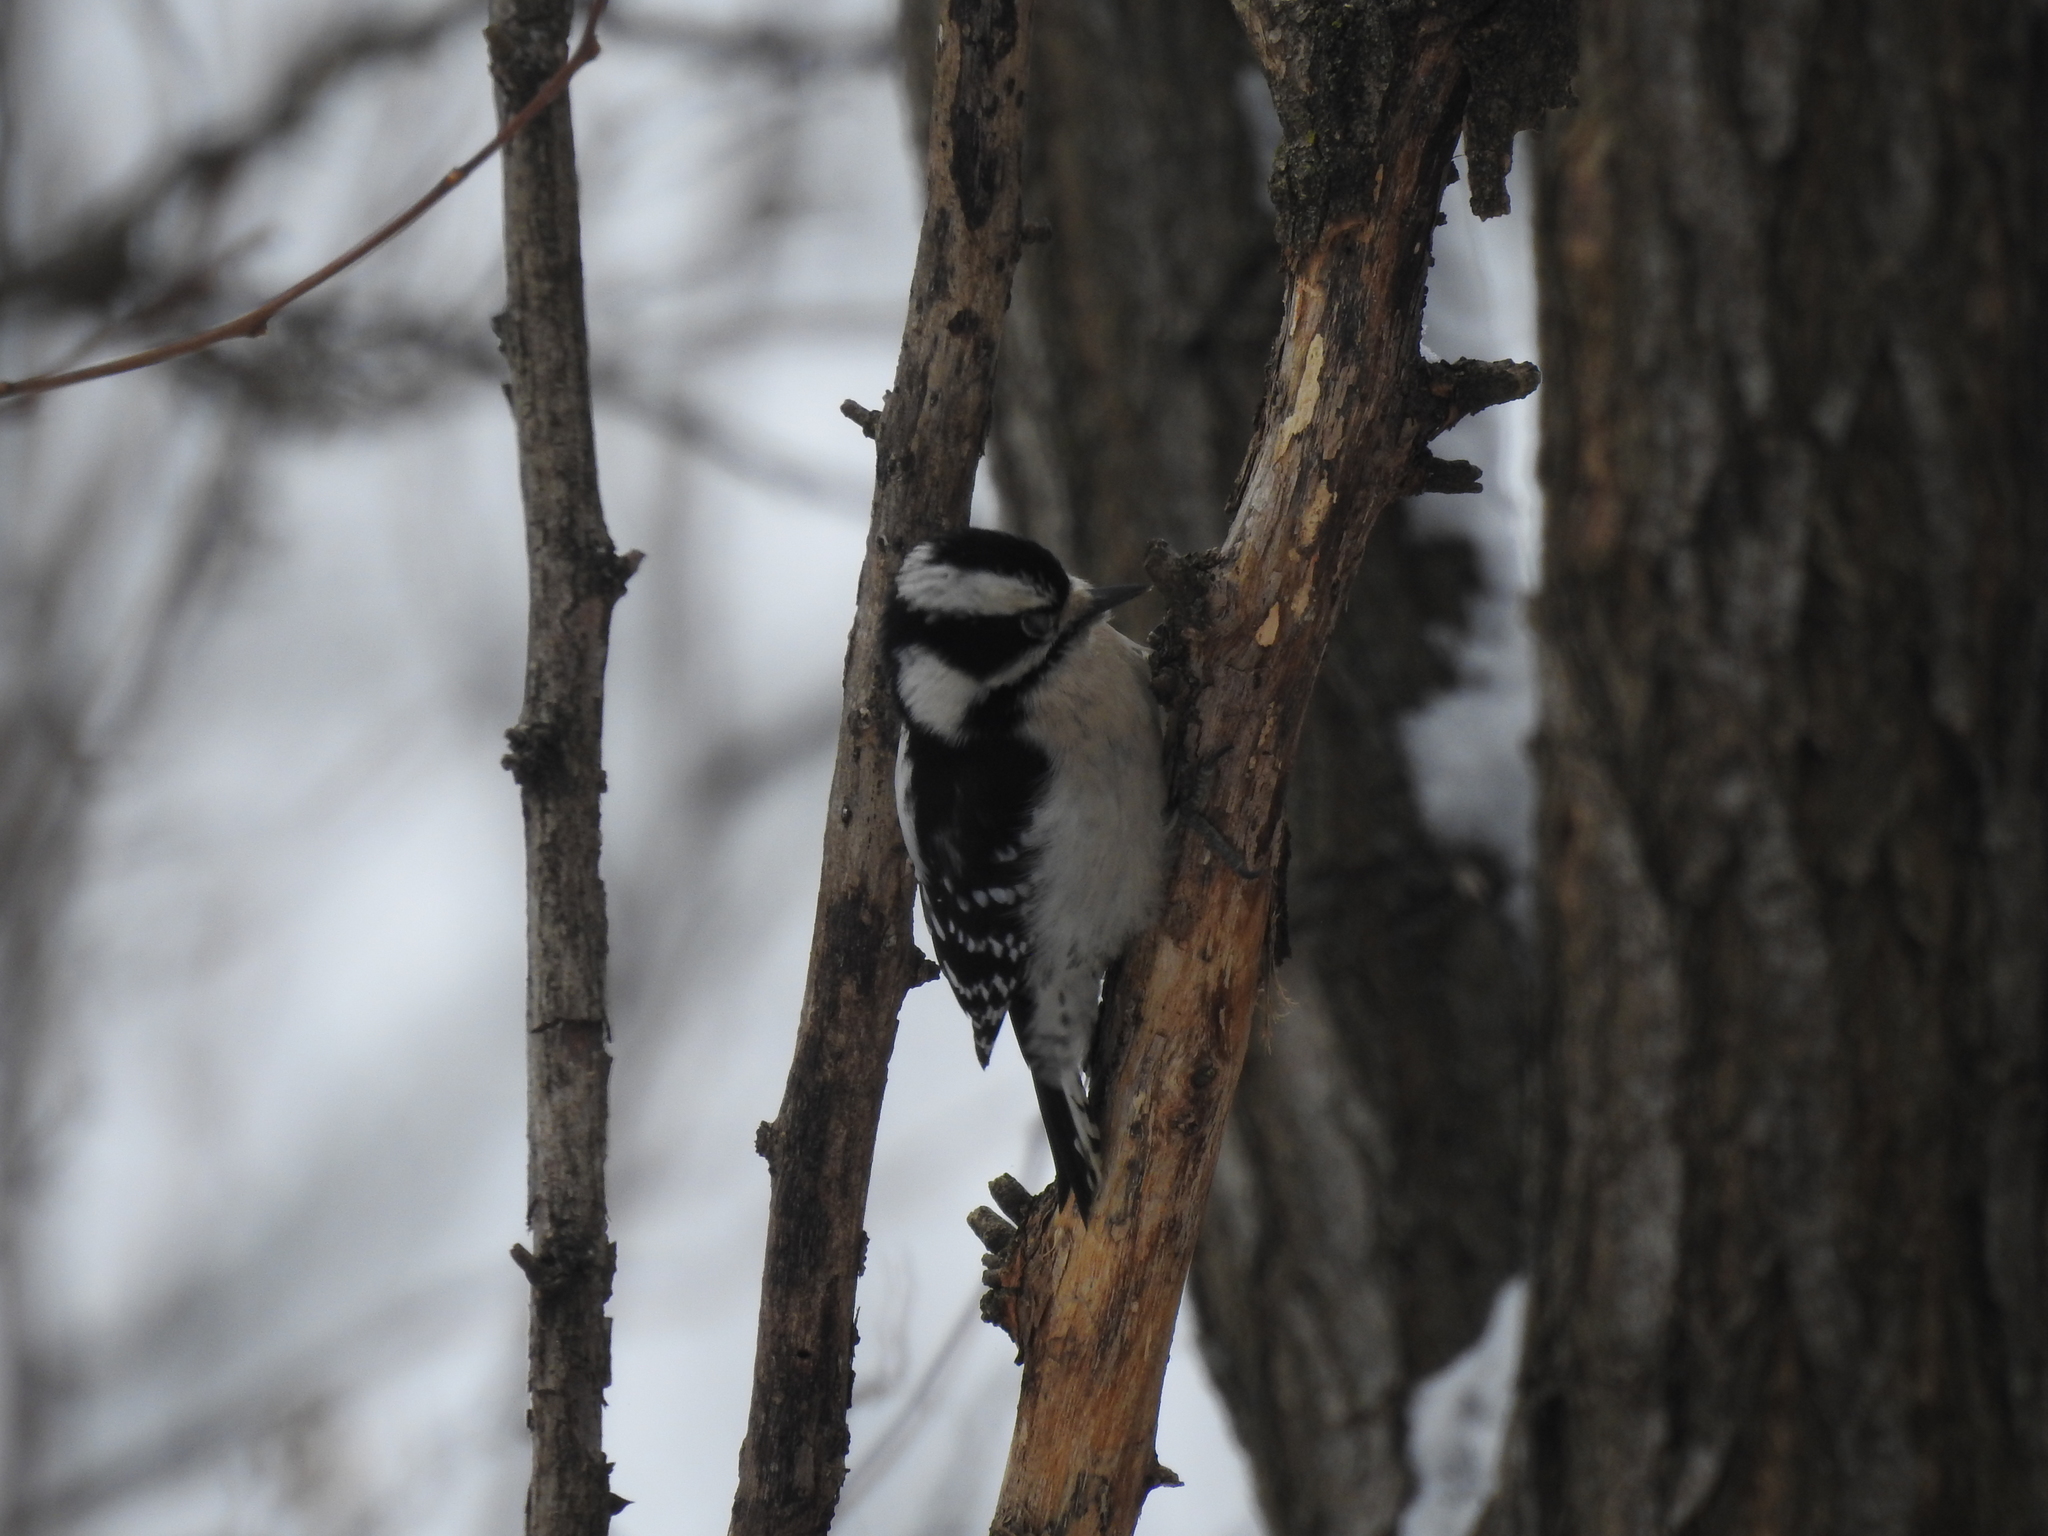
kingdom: Animalia
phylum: Chordata
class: Aves
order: Piciformes
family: Picidae
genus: Dryobates
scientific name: Dryobates pubescens
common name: Downy woodpecker
